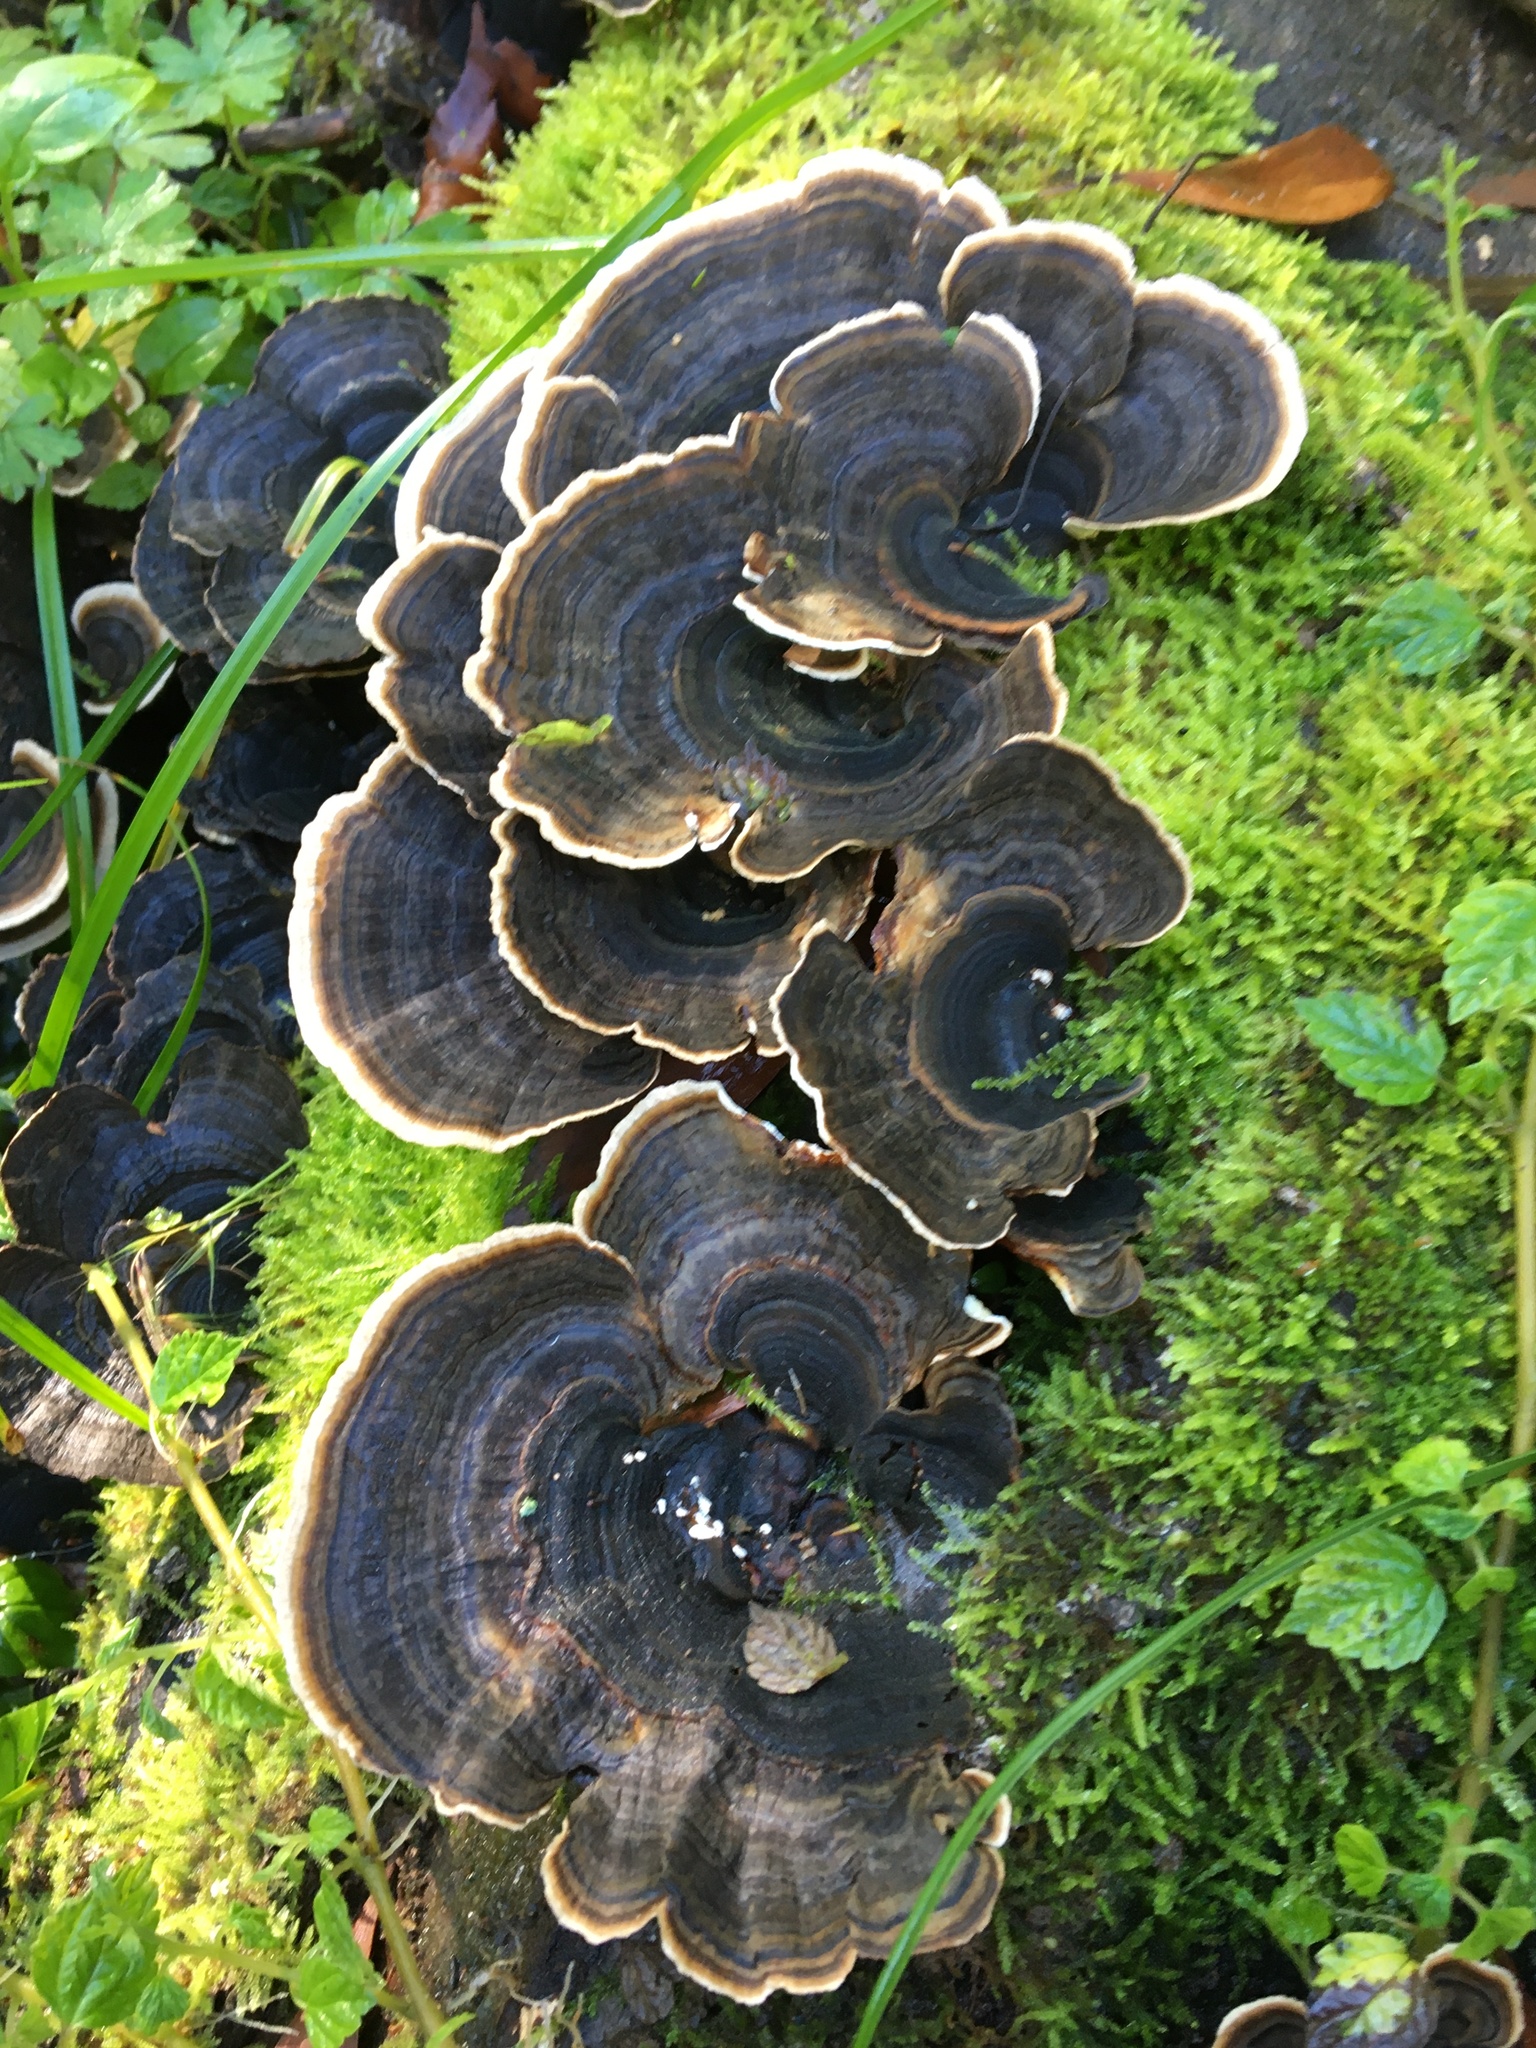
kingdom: Fungi
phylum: Basidiomycota
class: Agaricomycetes
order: Polyporales
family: Polyporaceae
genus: Trametes
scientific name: Trametes versicolor
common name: Turkeytail
